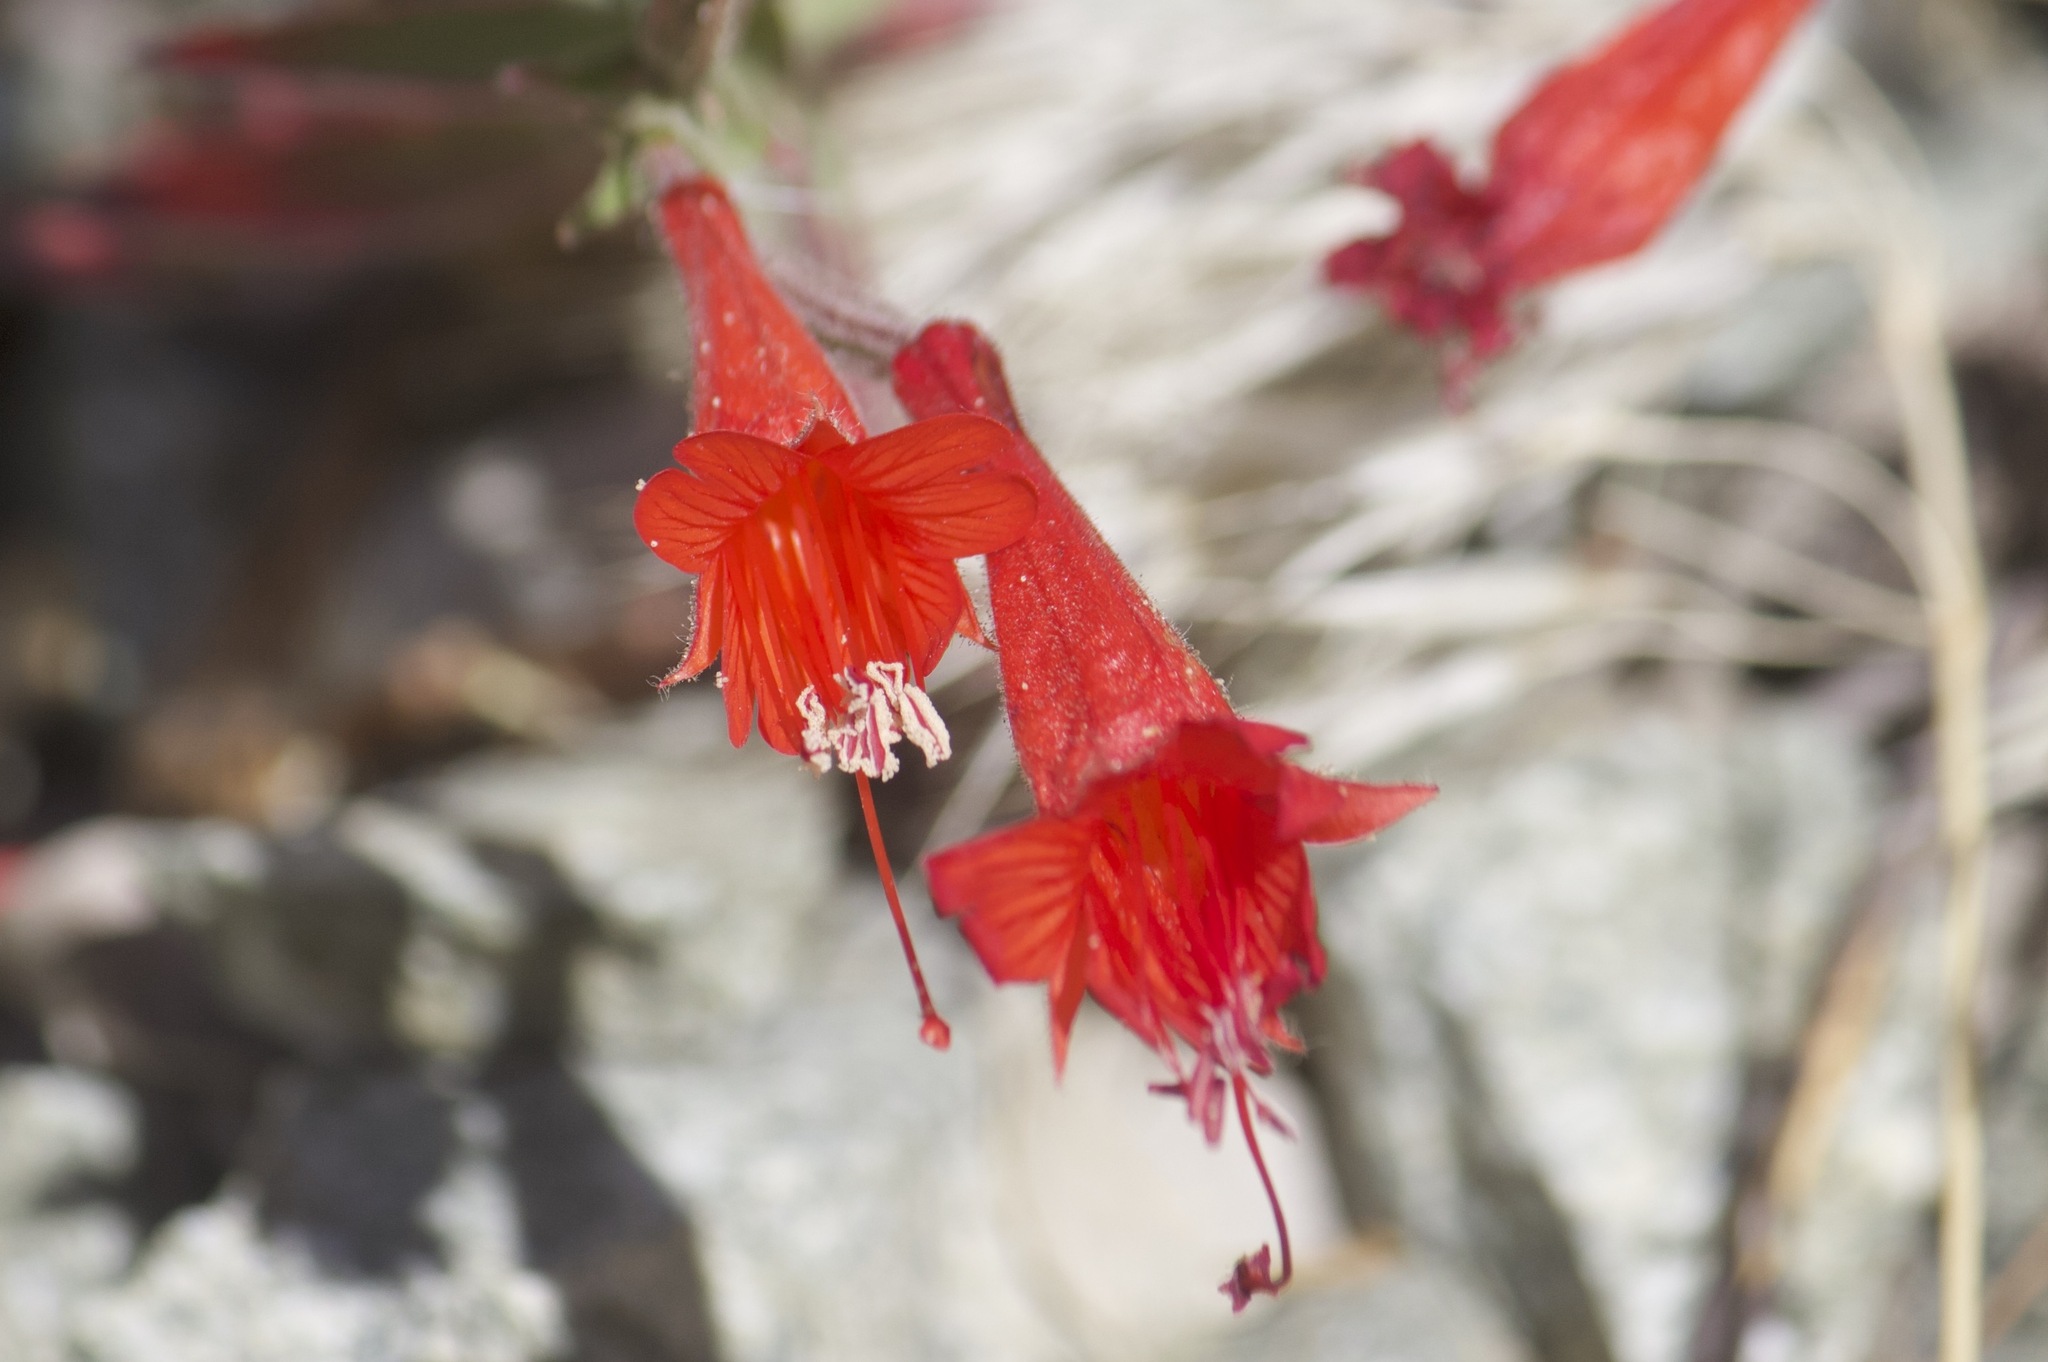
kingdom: Plantae
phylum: Tracheophyta
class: Magnoliopsida
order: Myrtales
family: Onagraceae
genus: Epilobium
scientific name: Epilobium canum
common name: California-fuchsia
